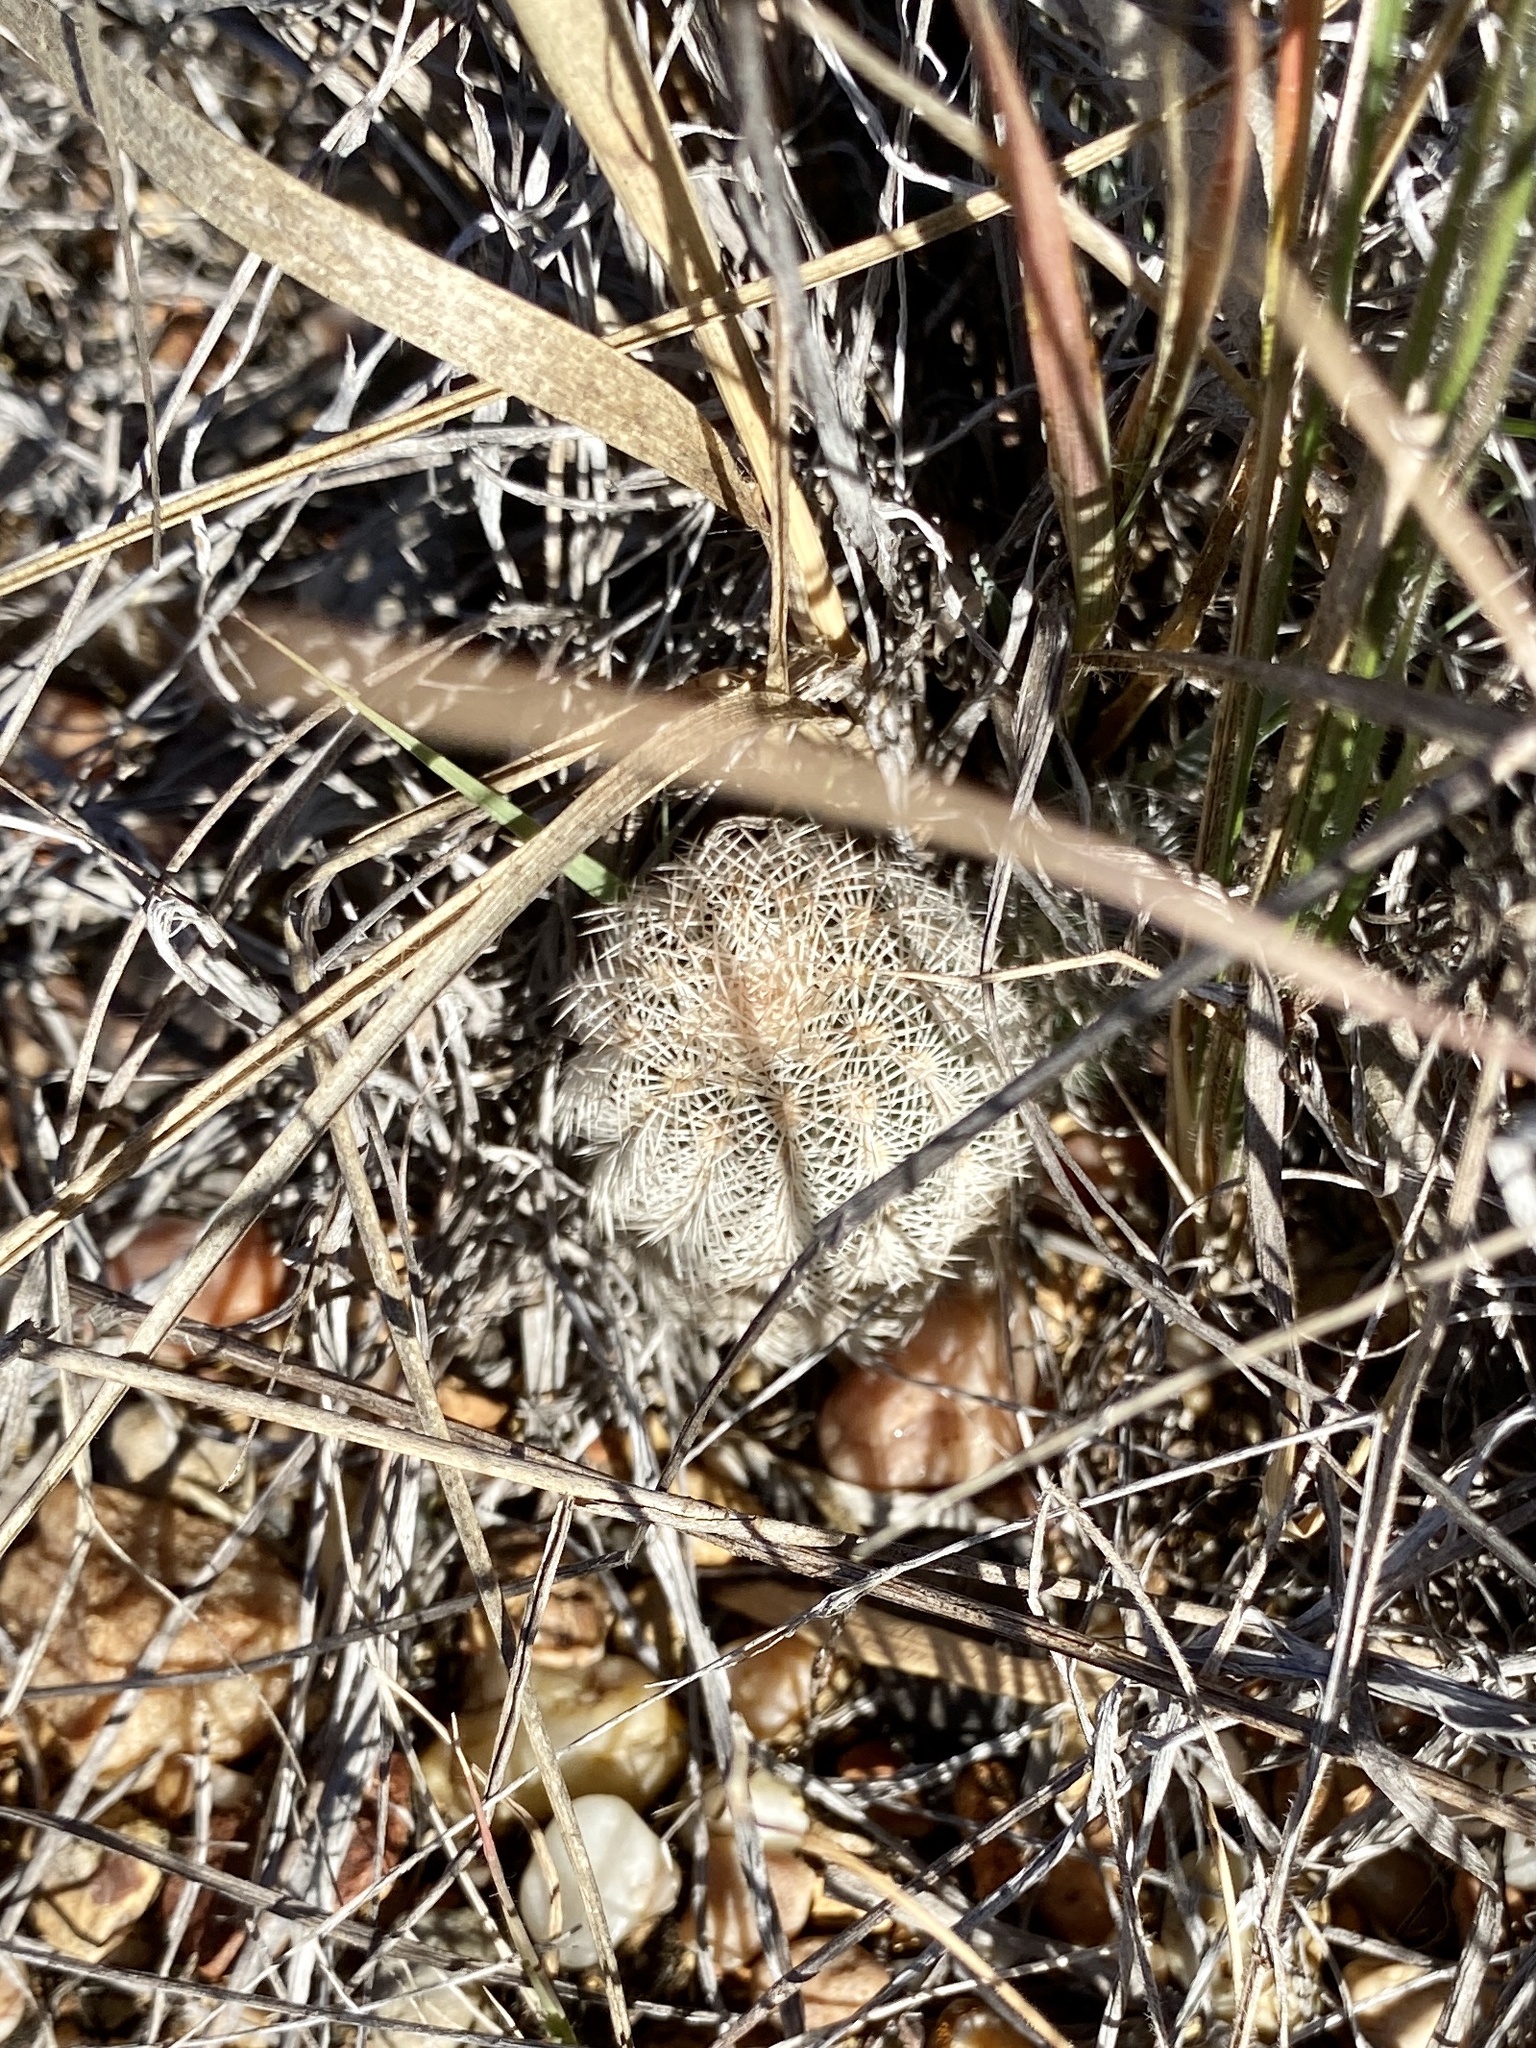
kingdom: Plantae
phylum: Tracheophyta
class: Magnoliopsida
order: Caryophyllales
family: Cactaceae
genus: Echinocereus
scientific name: Echinocereus reichenbachii
